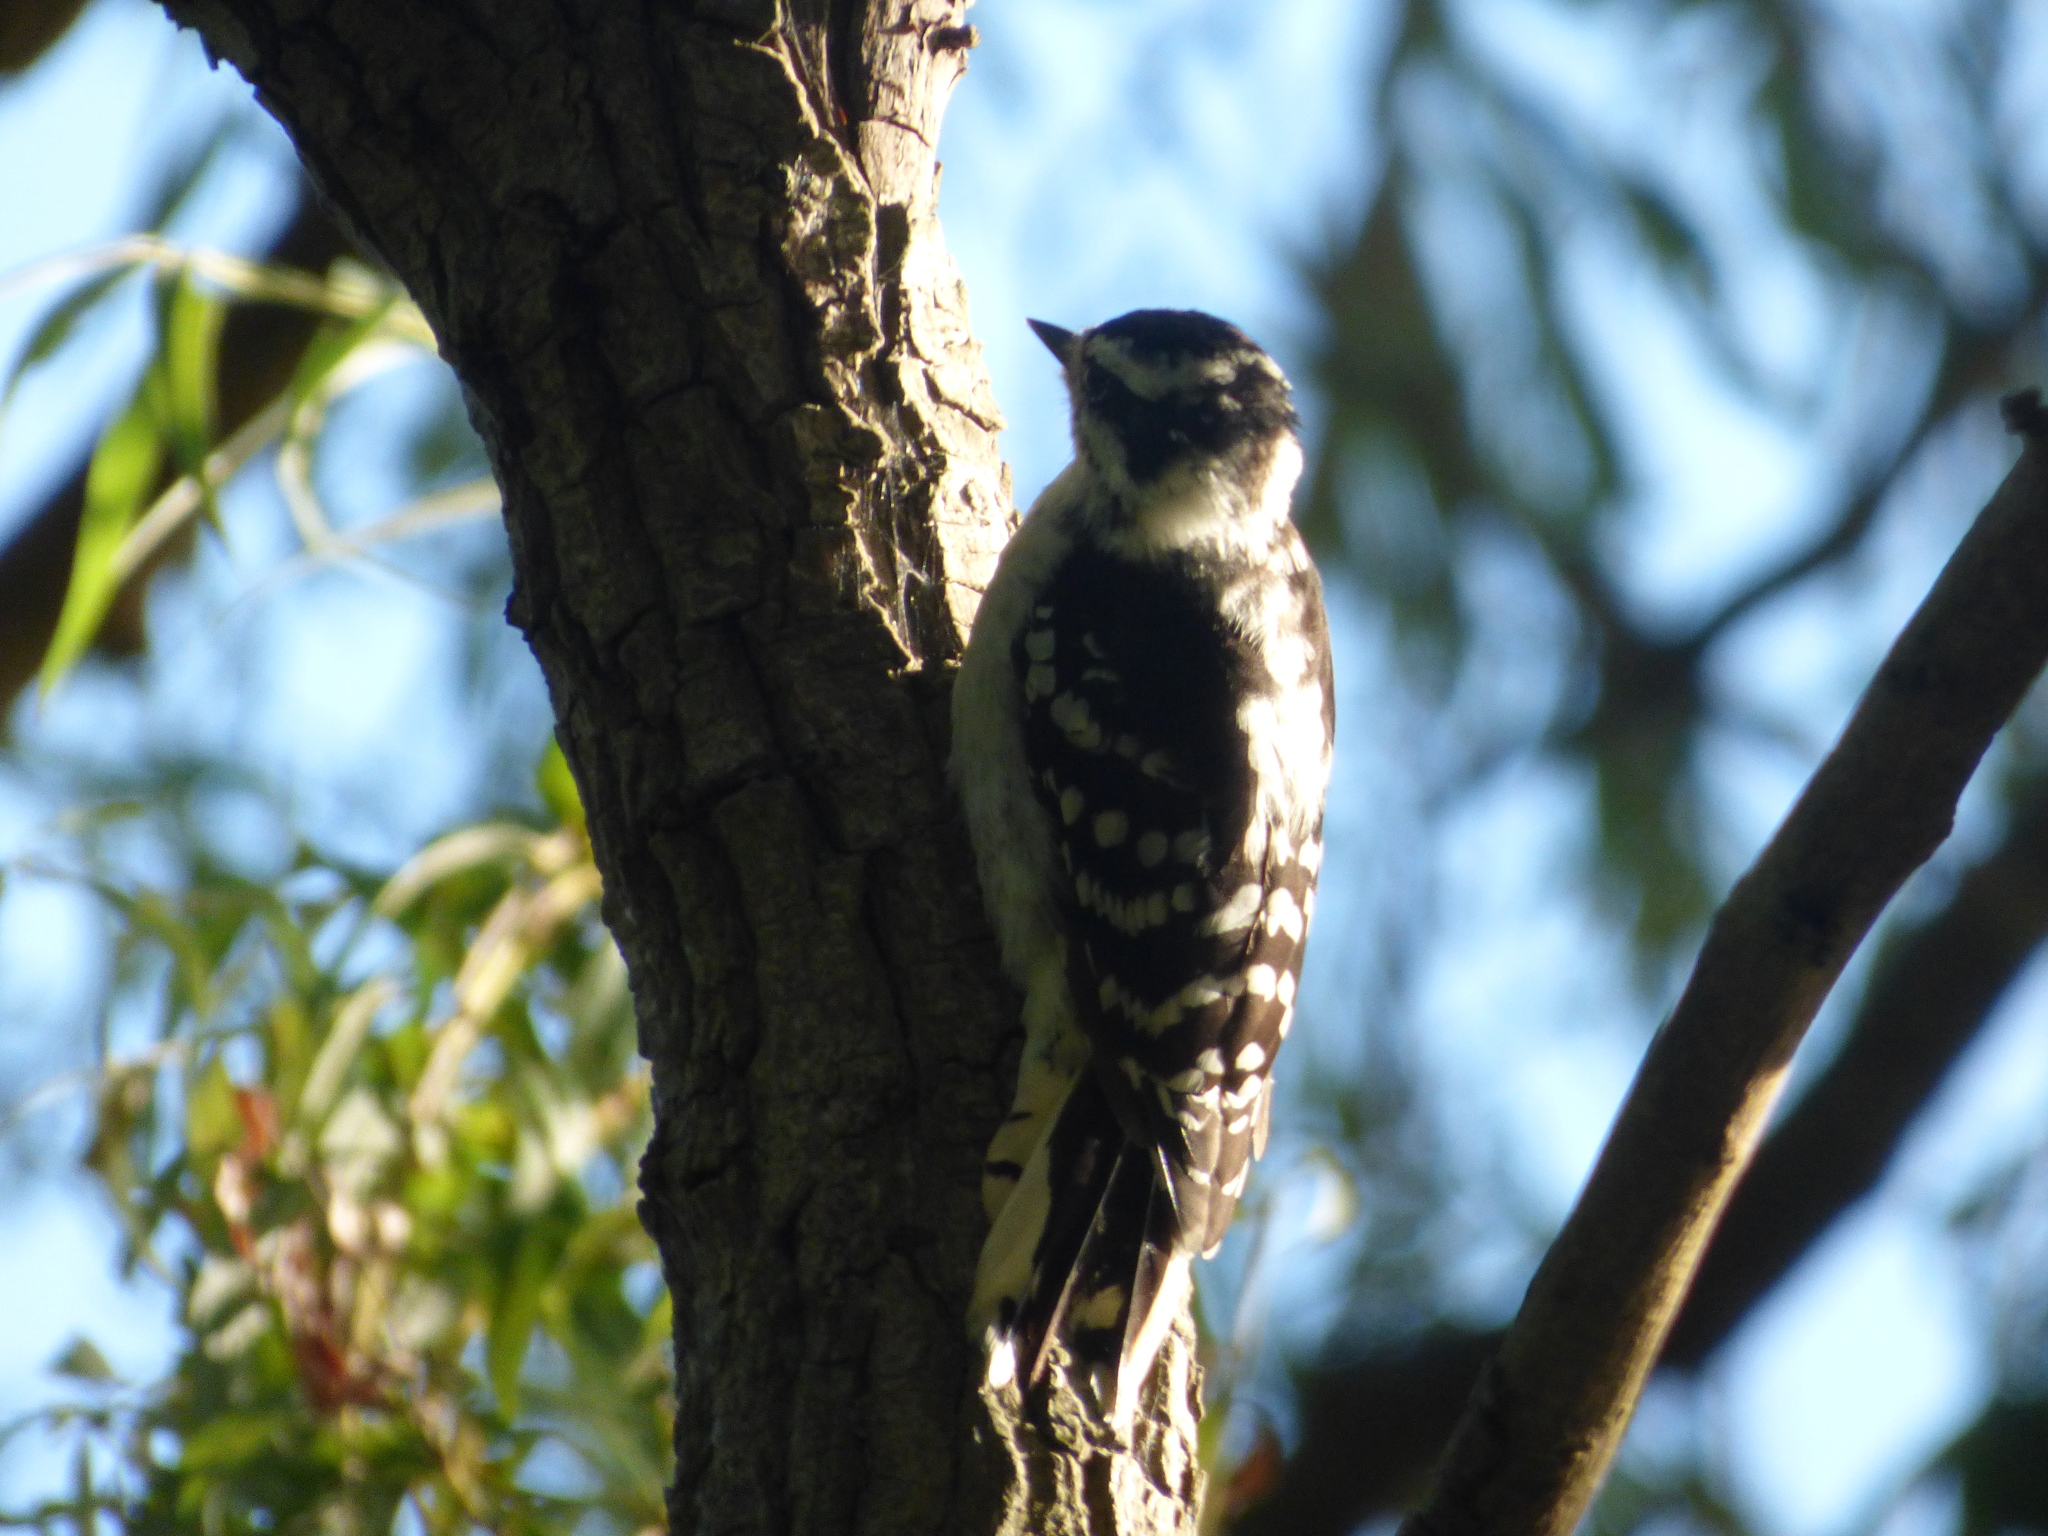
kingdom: Animalia
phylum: Chordata
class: Aves
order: Piciformes
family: Picidae
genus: Dryobates
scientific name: Dryobates pubescens
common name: Downy woodpecker
